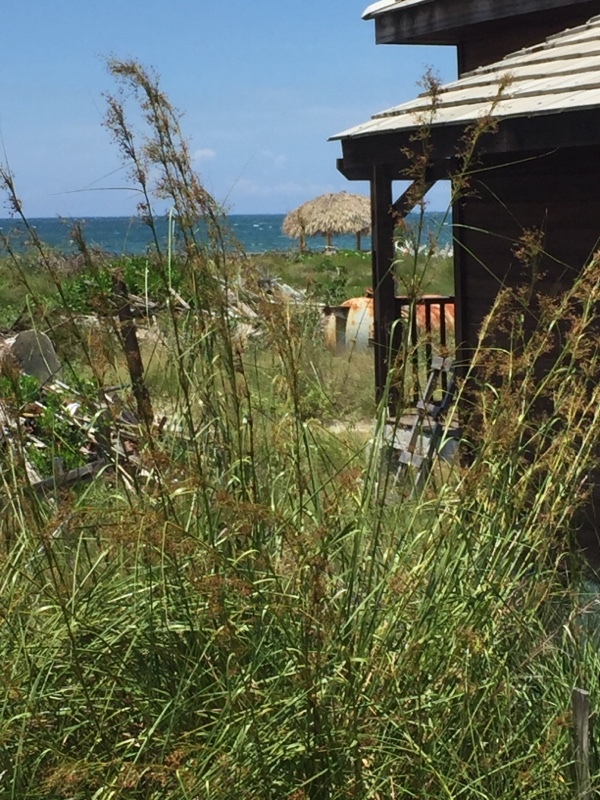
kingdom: Plantae
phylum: Tracheophyta
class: Liliopsida
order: Poales
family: Cyperaceae
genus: Cladium
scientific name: Cladium mariscus
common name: Great fen-sedge
